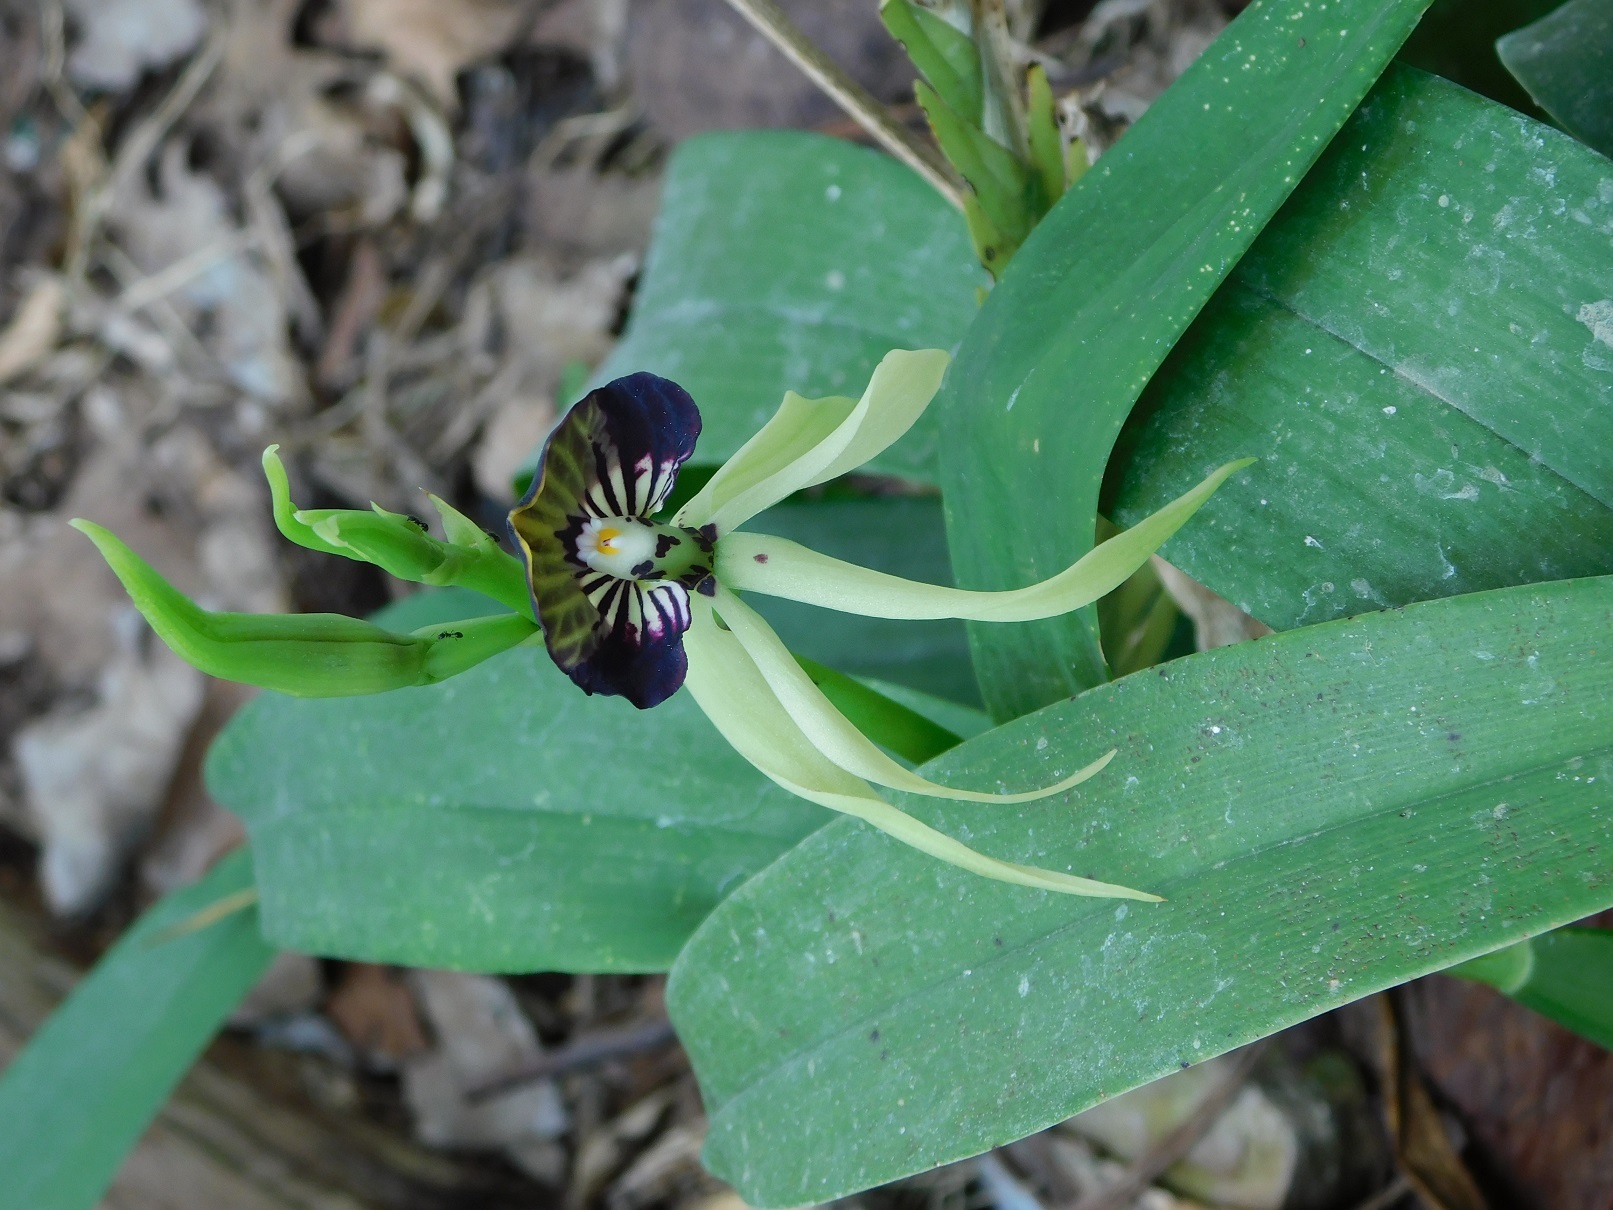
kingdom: Plantae
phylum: Tracheophyta
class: Liliopsida
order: Asparagales
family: Orchidaceae
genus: Prosthechea
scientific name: Prosthechea cochleata
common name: Clamshell orchid
